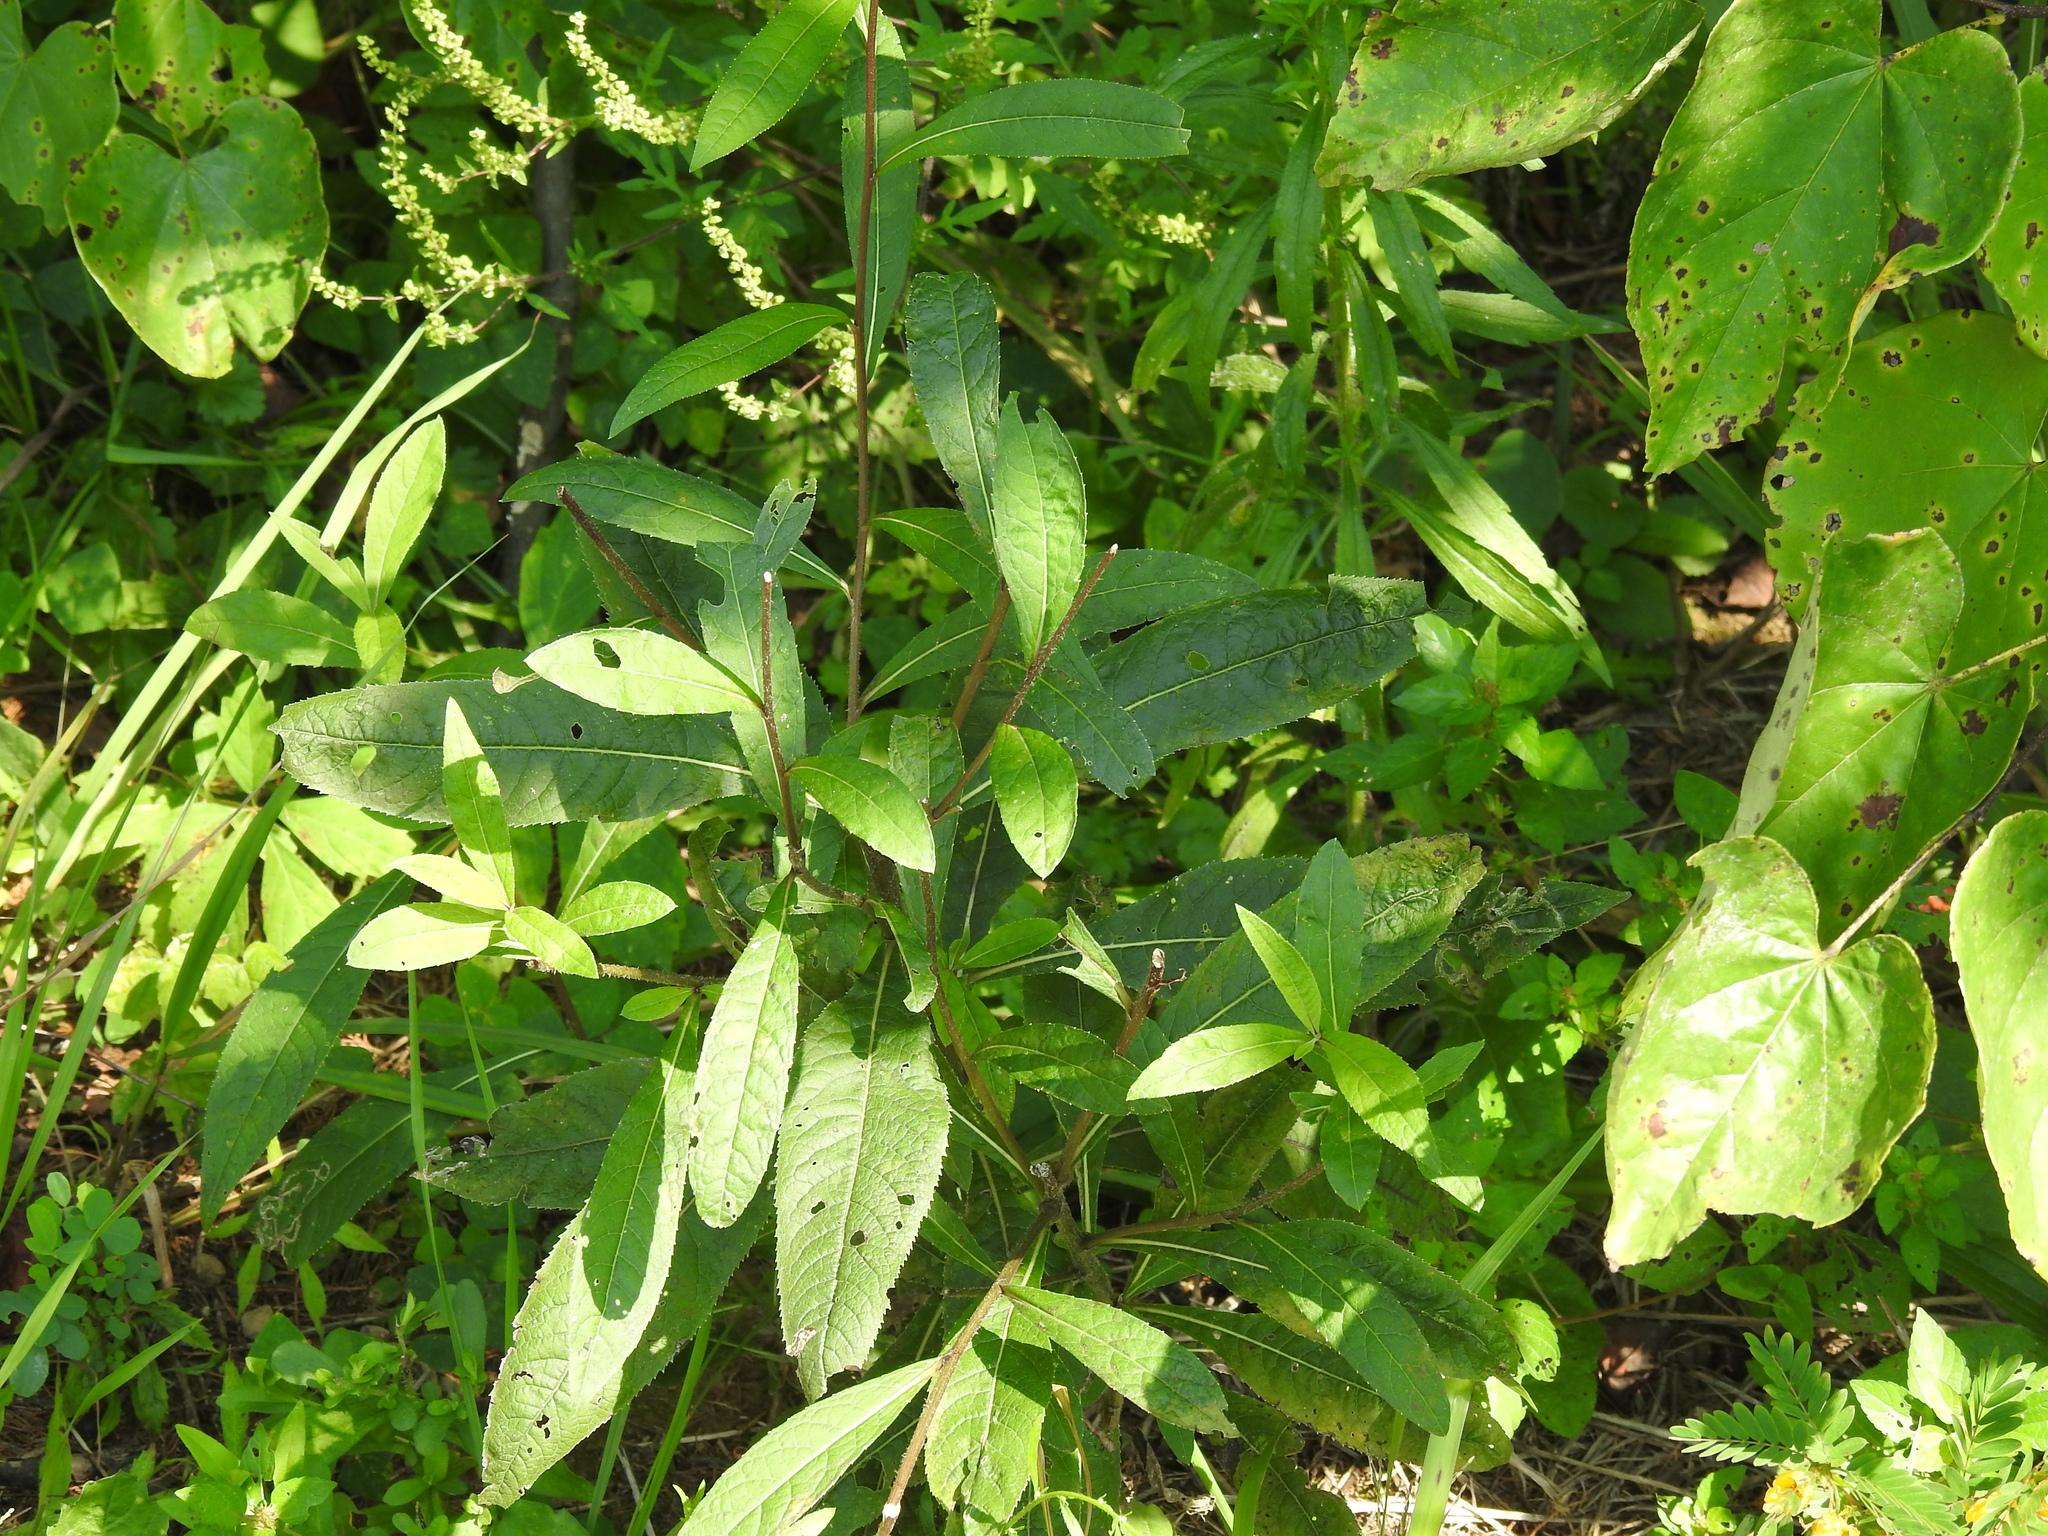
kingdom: Plantae
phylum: Tracheophyta
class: Magnoliopsida
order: Asterales
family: Asteraceae
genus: Vernonia
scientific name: Vernonia gigantea
